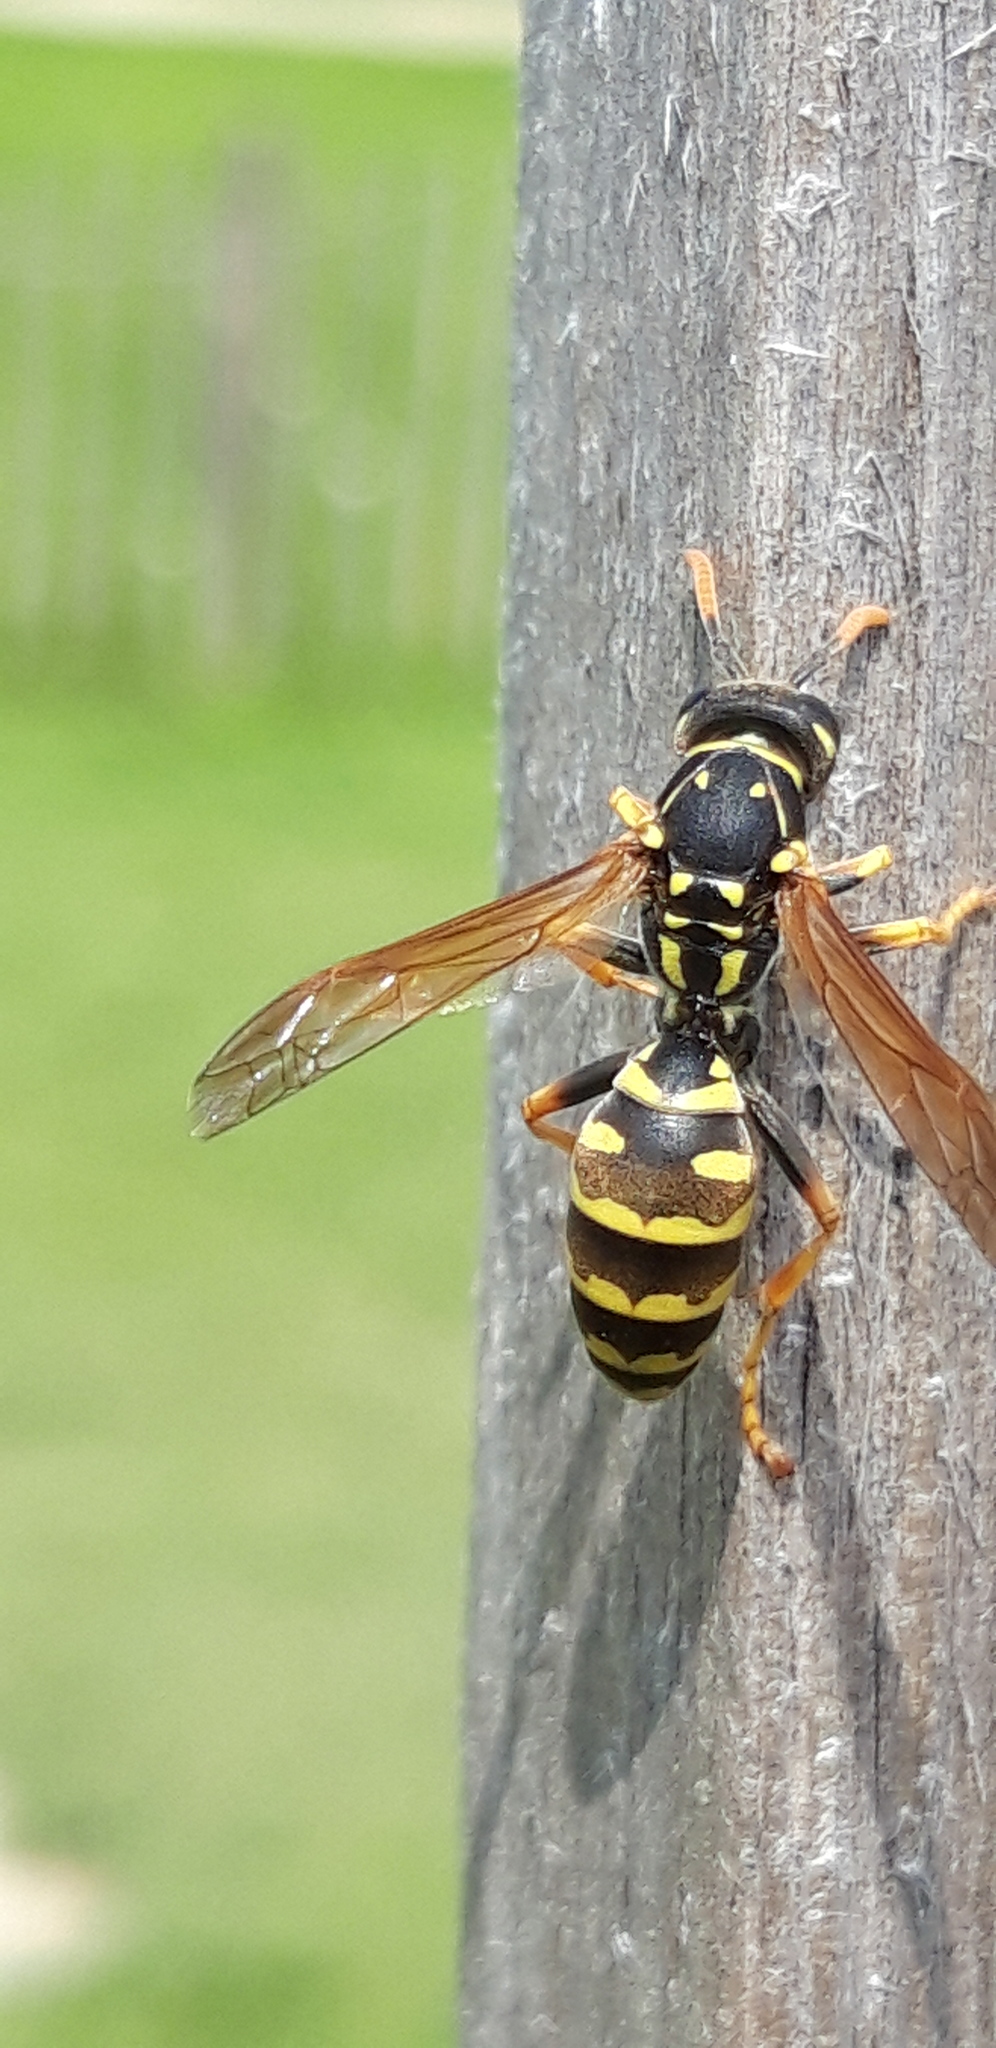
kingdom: Animalia
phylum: Arthropoda
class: Insecta
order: Hymenoptera
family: Eumenidae
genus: Polistes
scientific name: Polistes dominula
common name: Paper wasp
